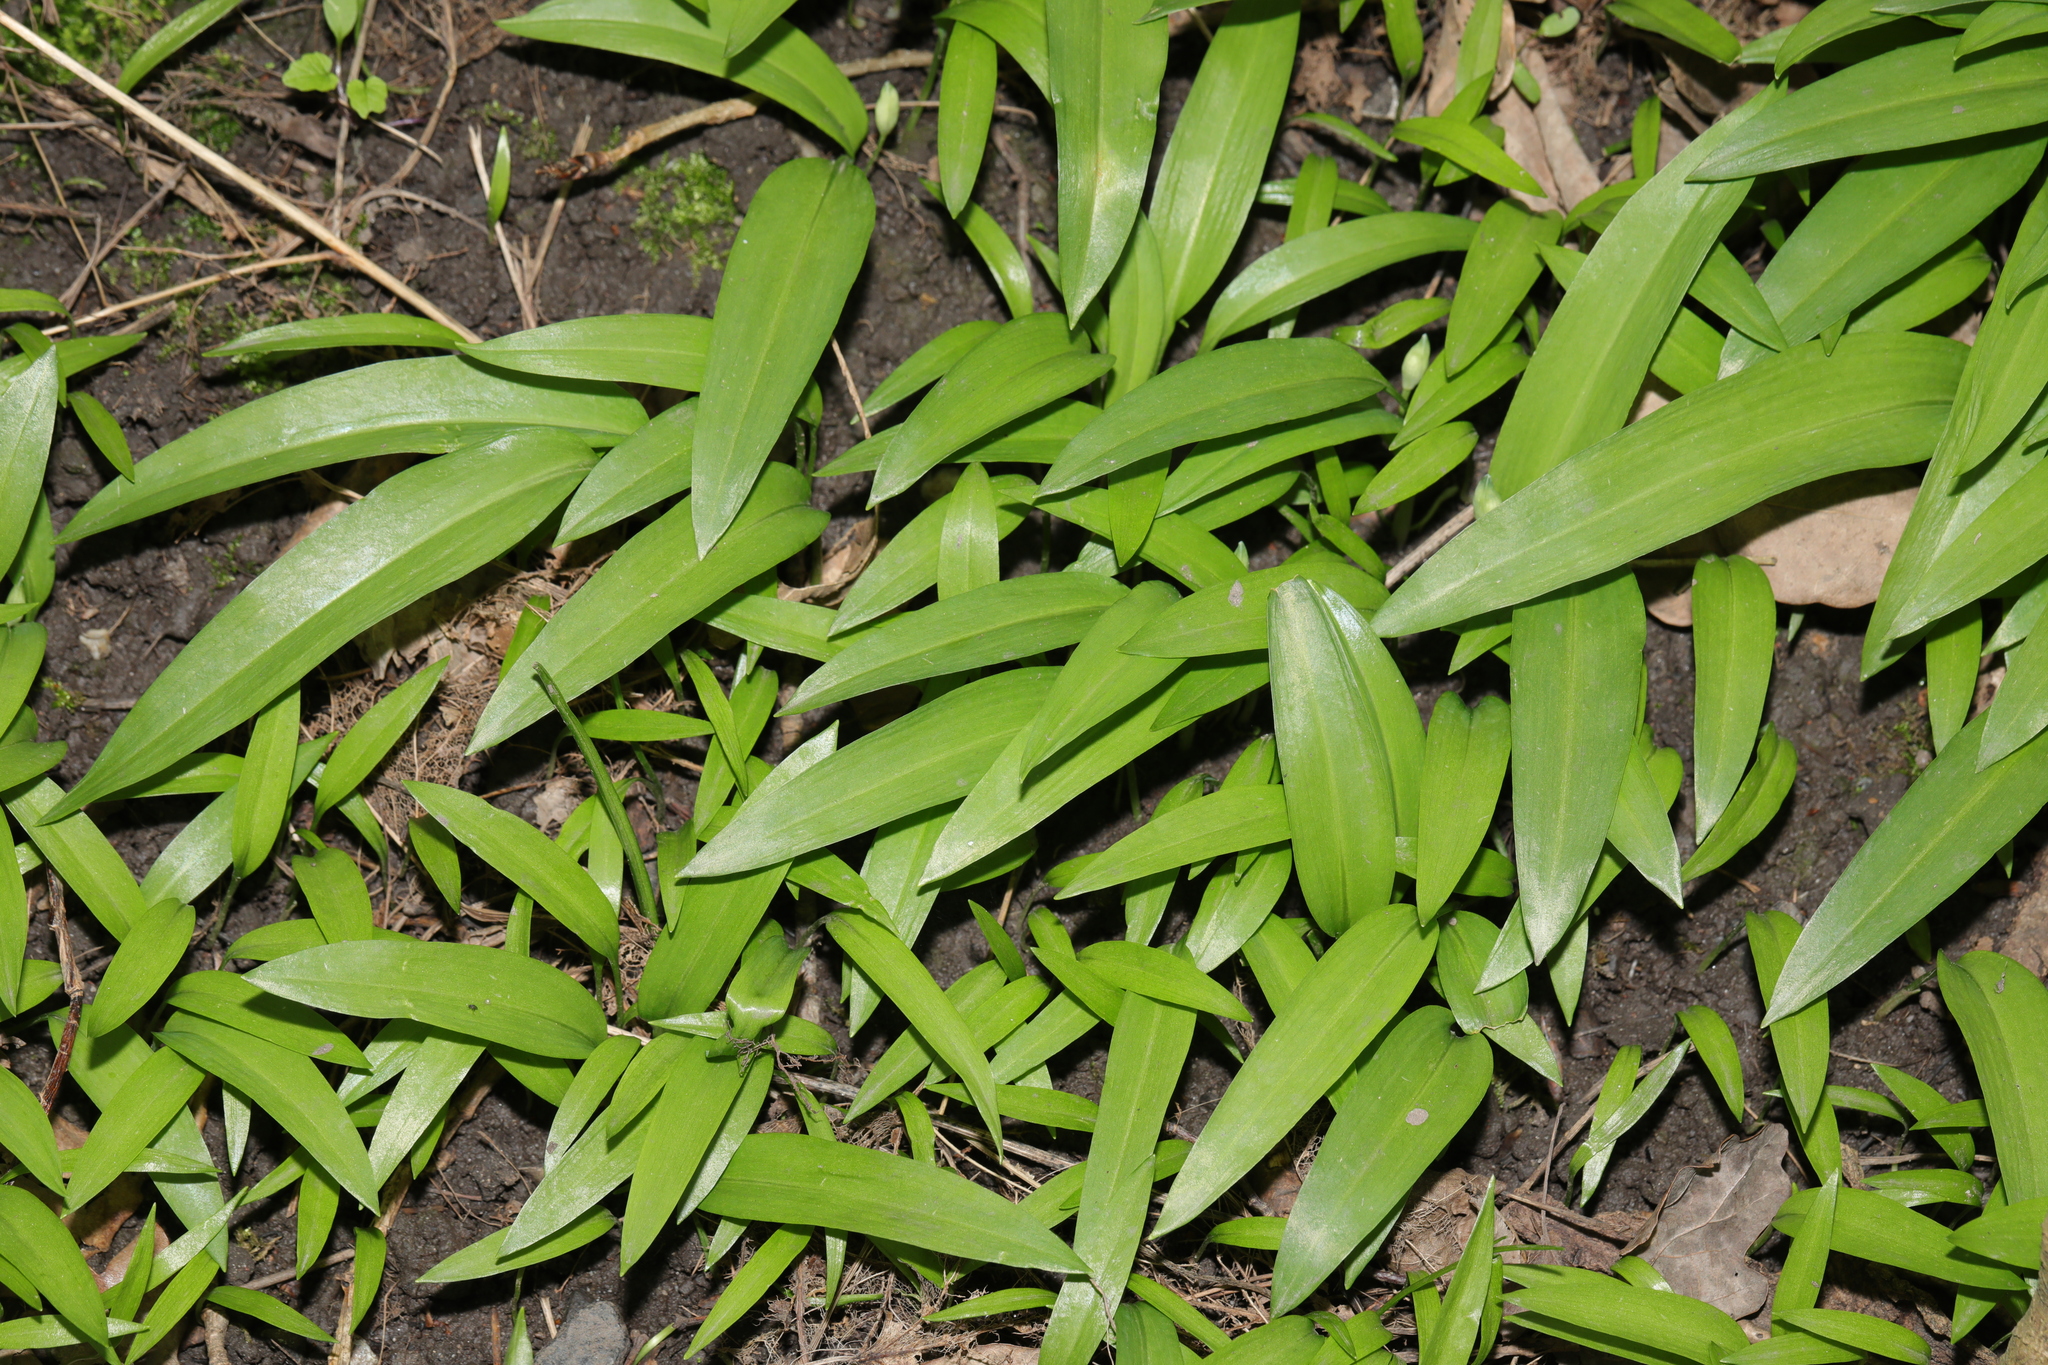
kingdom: Plantae
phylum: Tracheophyta
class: Liliopsida
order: Asparagales
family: Amaryllidaceae
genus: Allium
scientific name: Allium ursinum
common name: Ramsons
